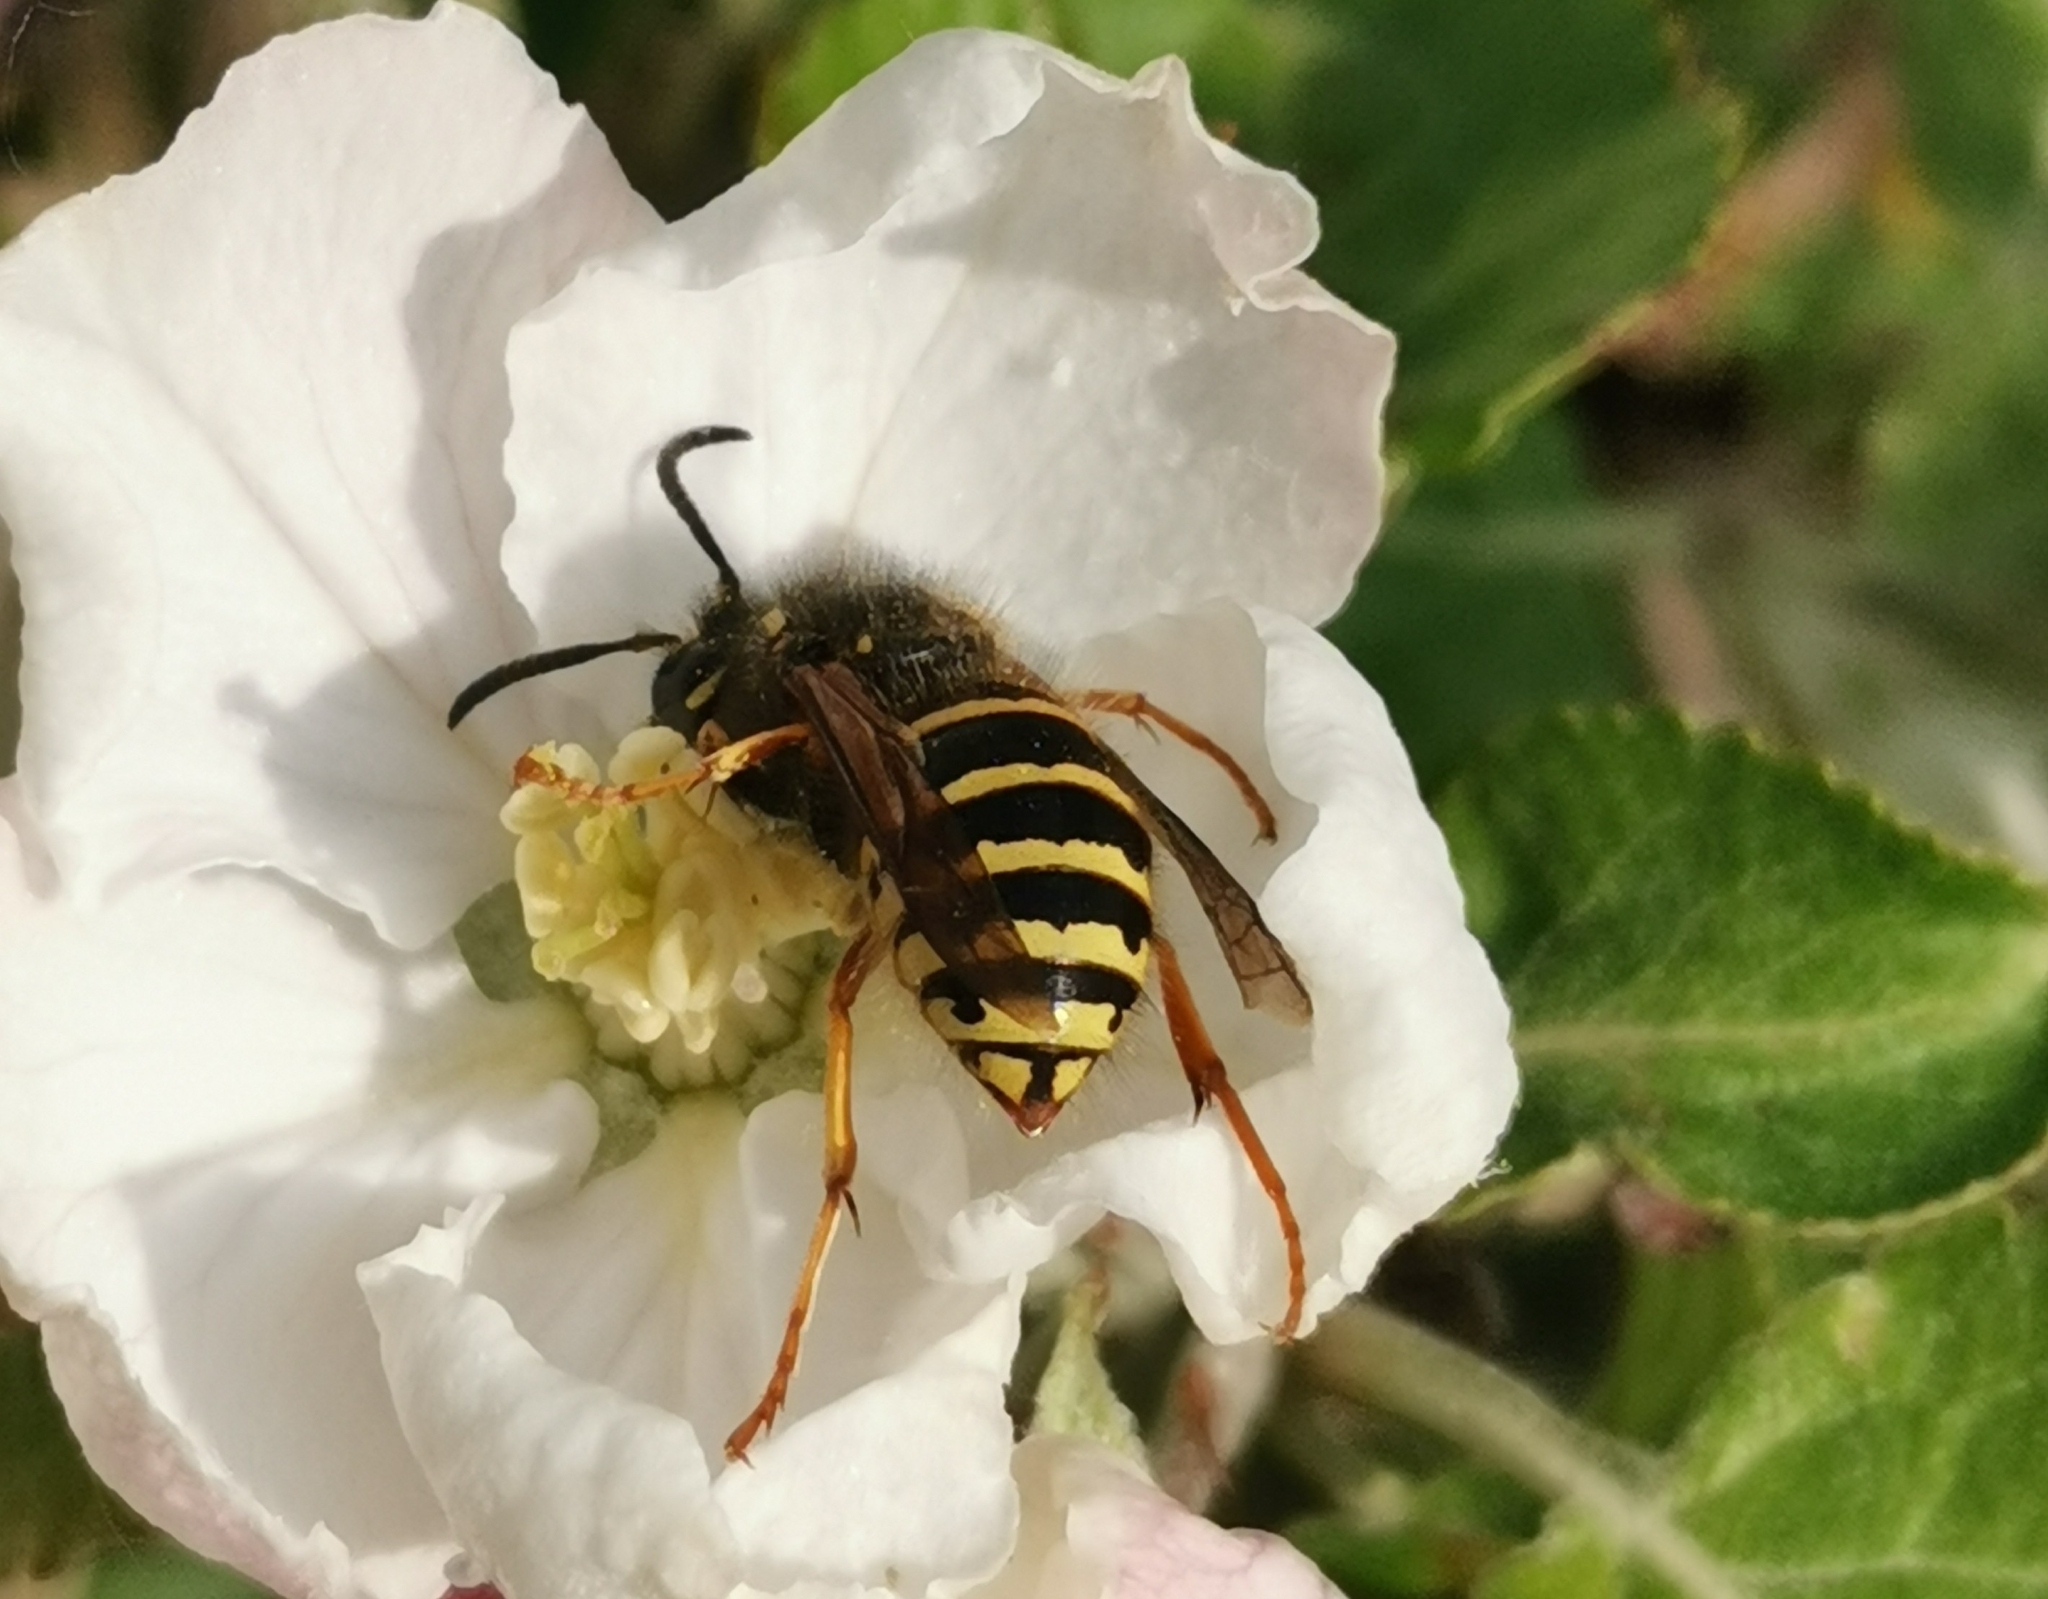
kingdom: Animalia
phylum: Arthropoda
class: Insecta
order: Hymenoptera
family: Vespidae
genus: Dolichovespula
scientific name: Dolichovespula norwegica
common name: Norwegian wasp
